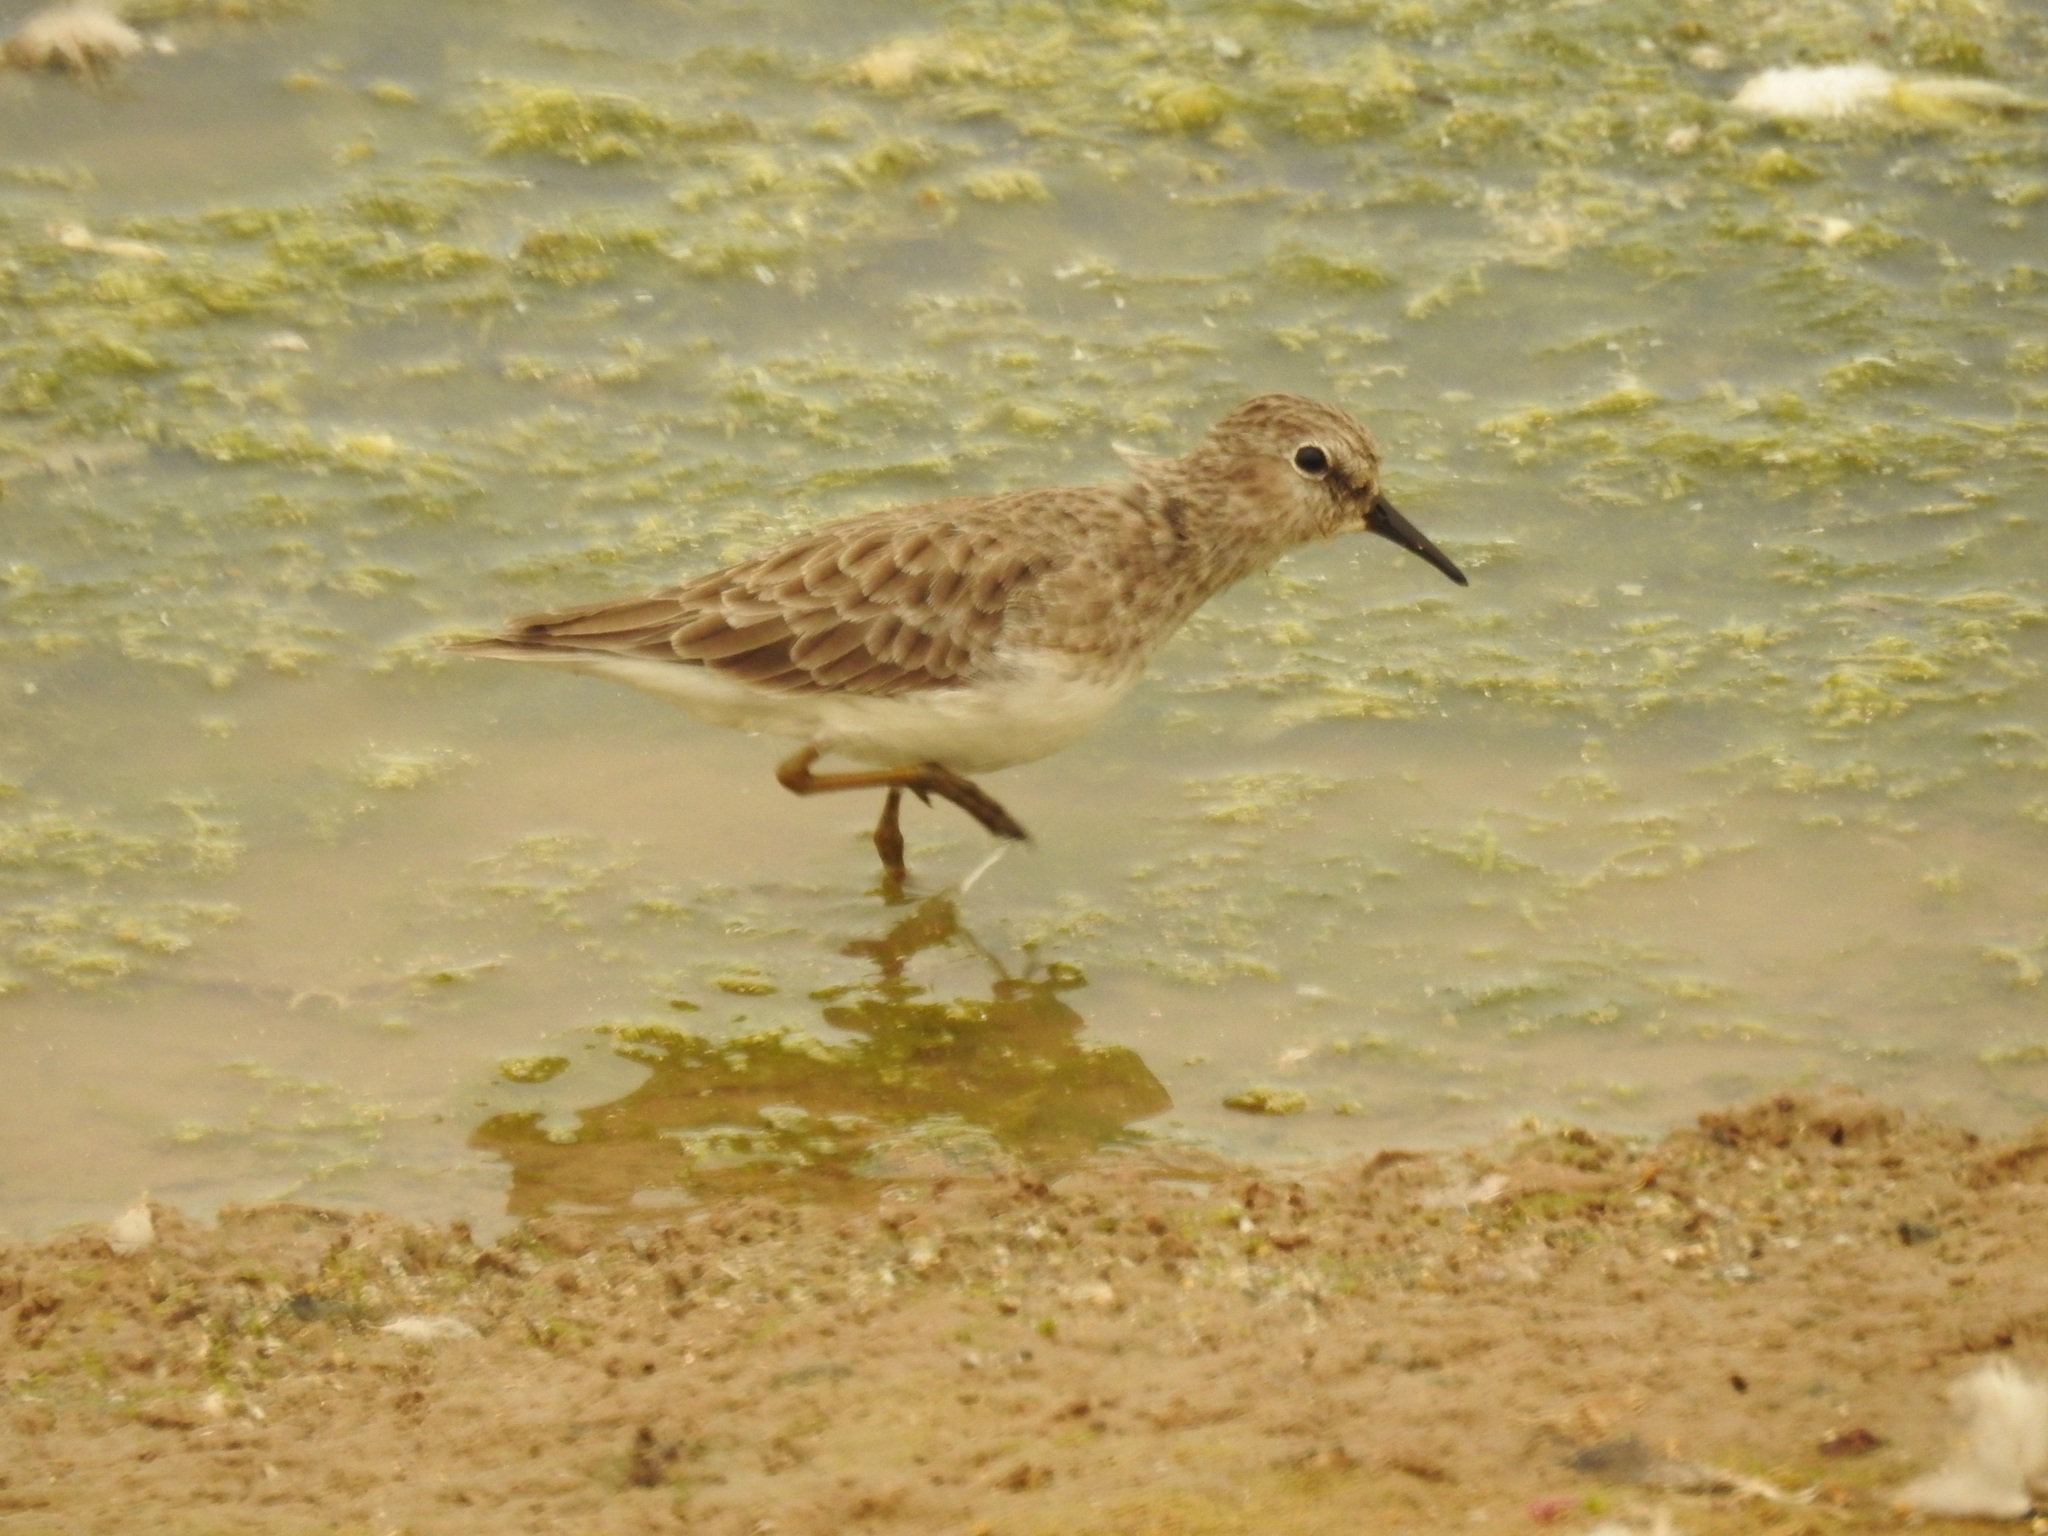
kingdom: Animalia
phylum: Chordata
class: Aves
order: Charadriiformes
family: Scolopacidae
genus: Calidris
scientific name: Calidris minutilla
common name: Least sandpiper
